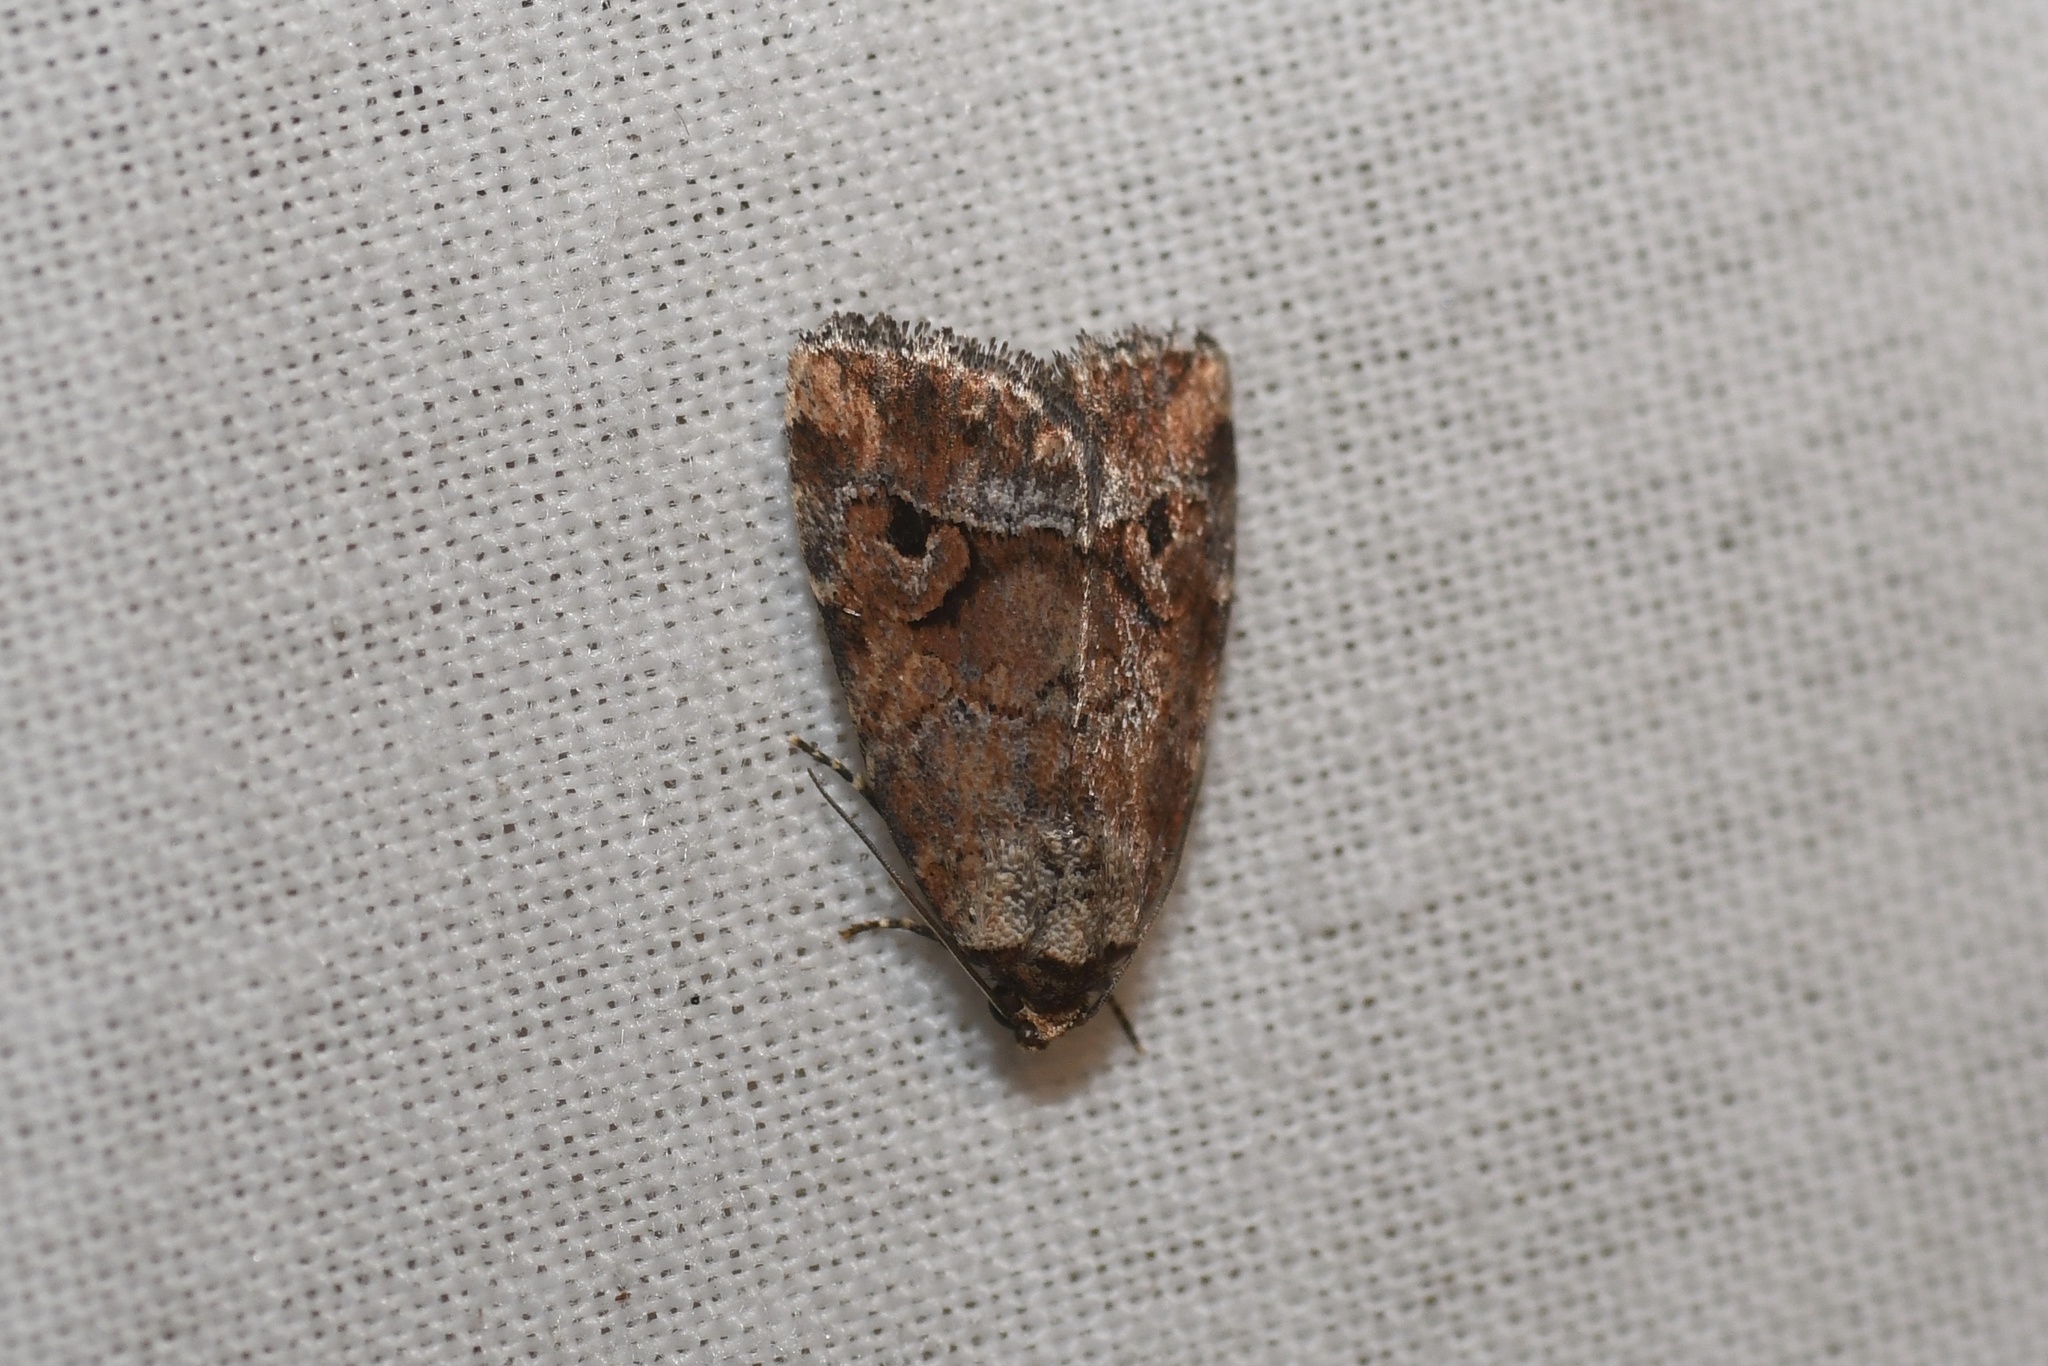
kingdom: Animalia
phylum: Arthropoda
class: Insecta
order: Lepidoptera
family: Noctuidae
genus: Elaphria
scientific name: Elaphria alapallida
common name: Pale-winged midget
